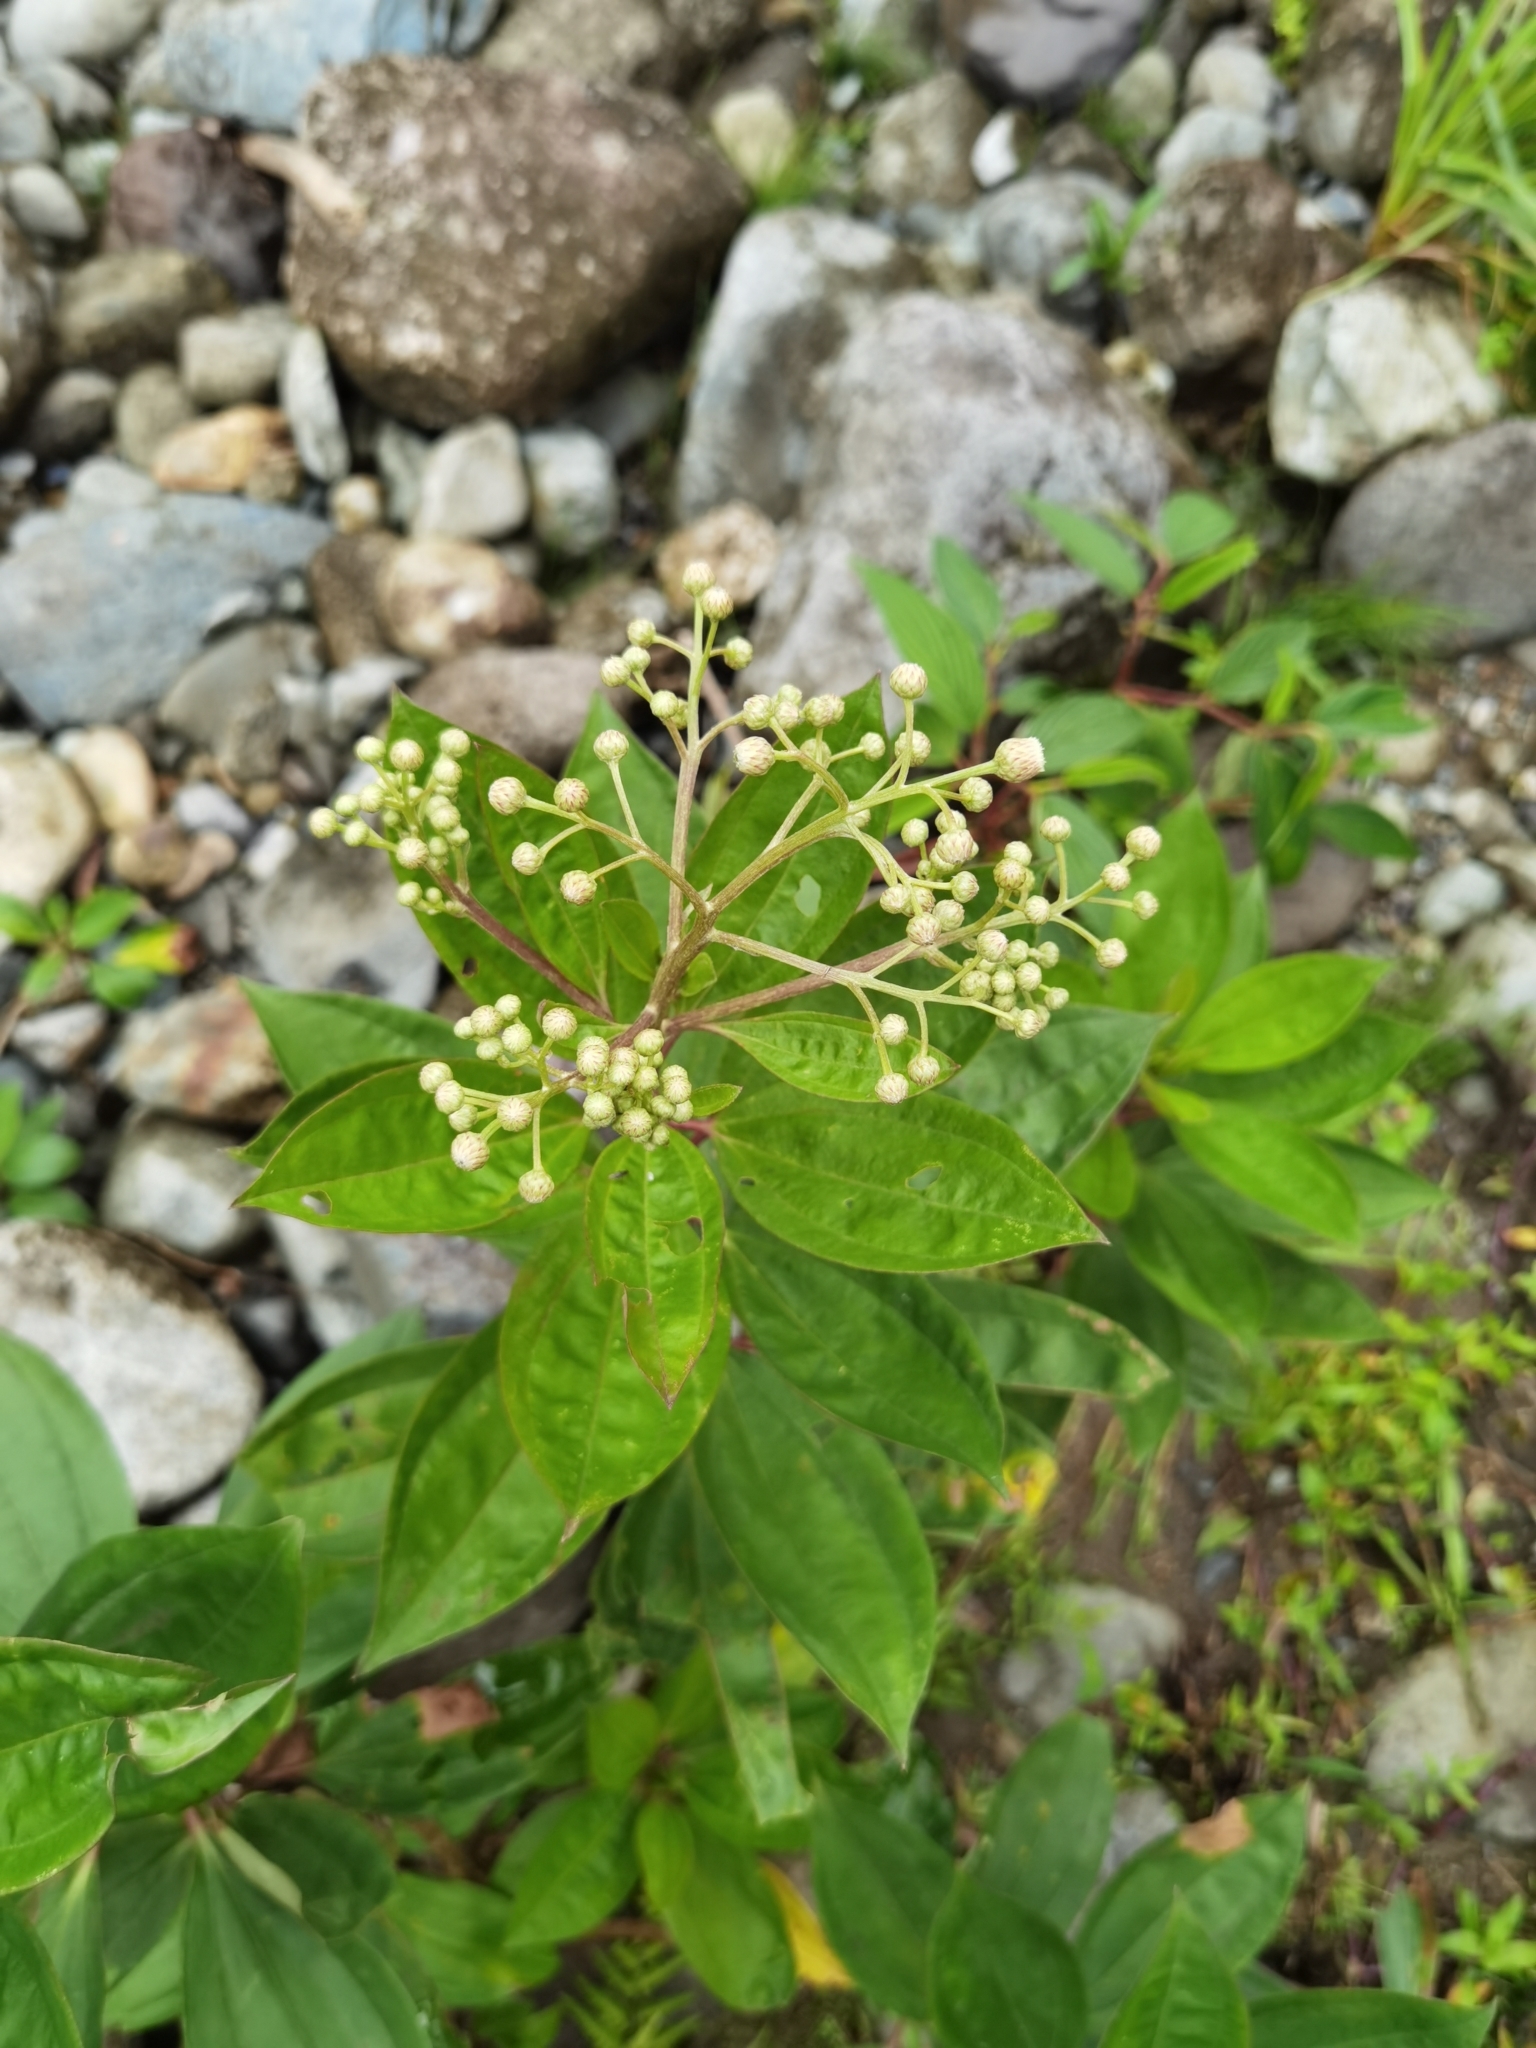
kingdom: Plantae
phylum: Tracheophyta
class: Magnoliopsida
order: Asterales
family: Asteraceae
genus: Baccharis
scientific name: Baccharis pedunculata
